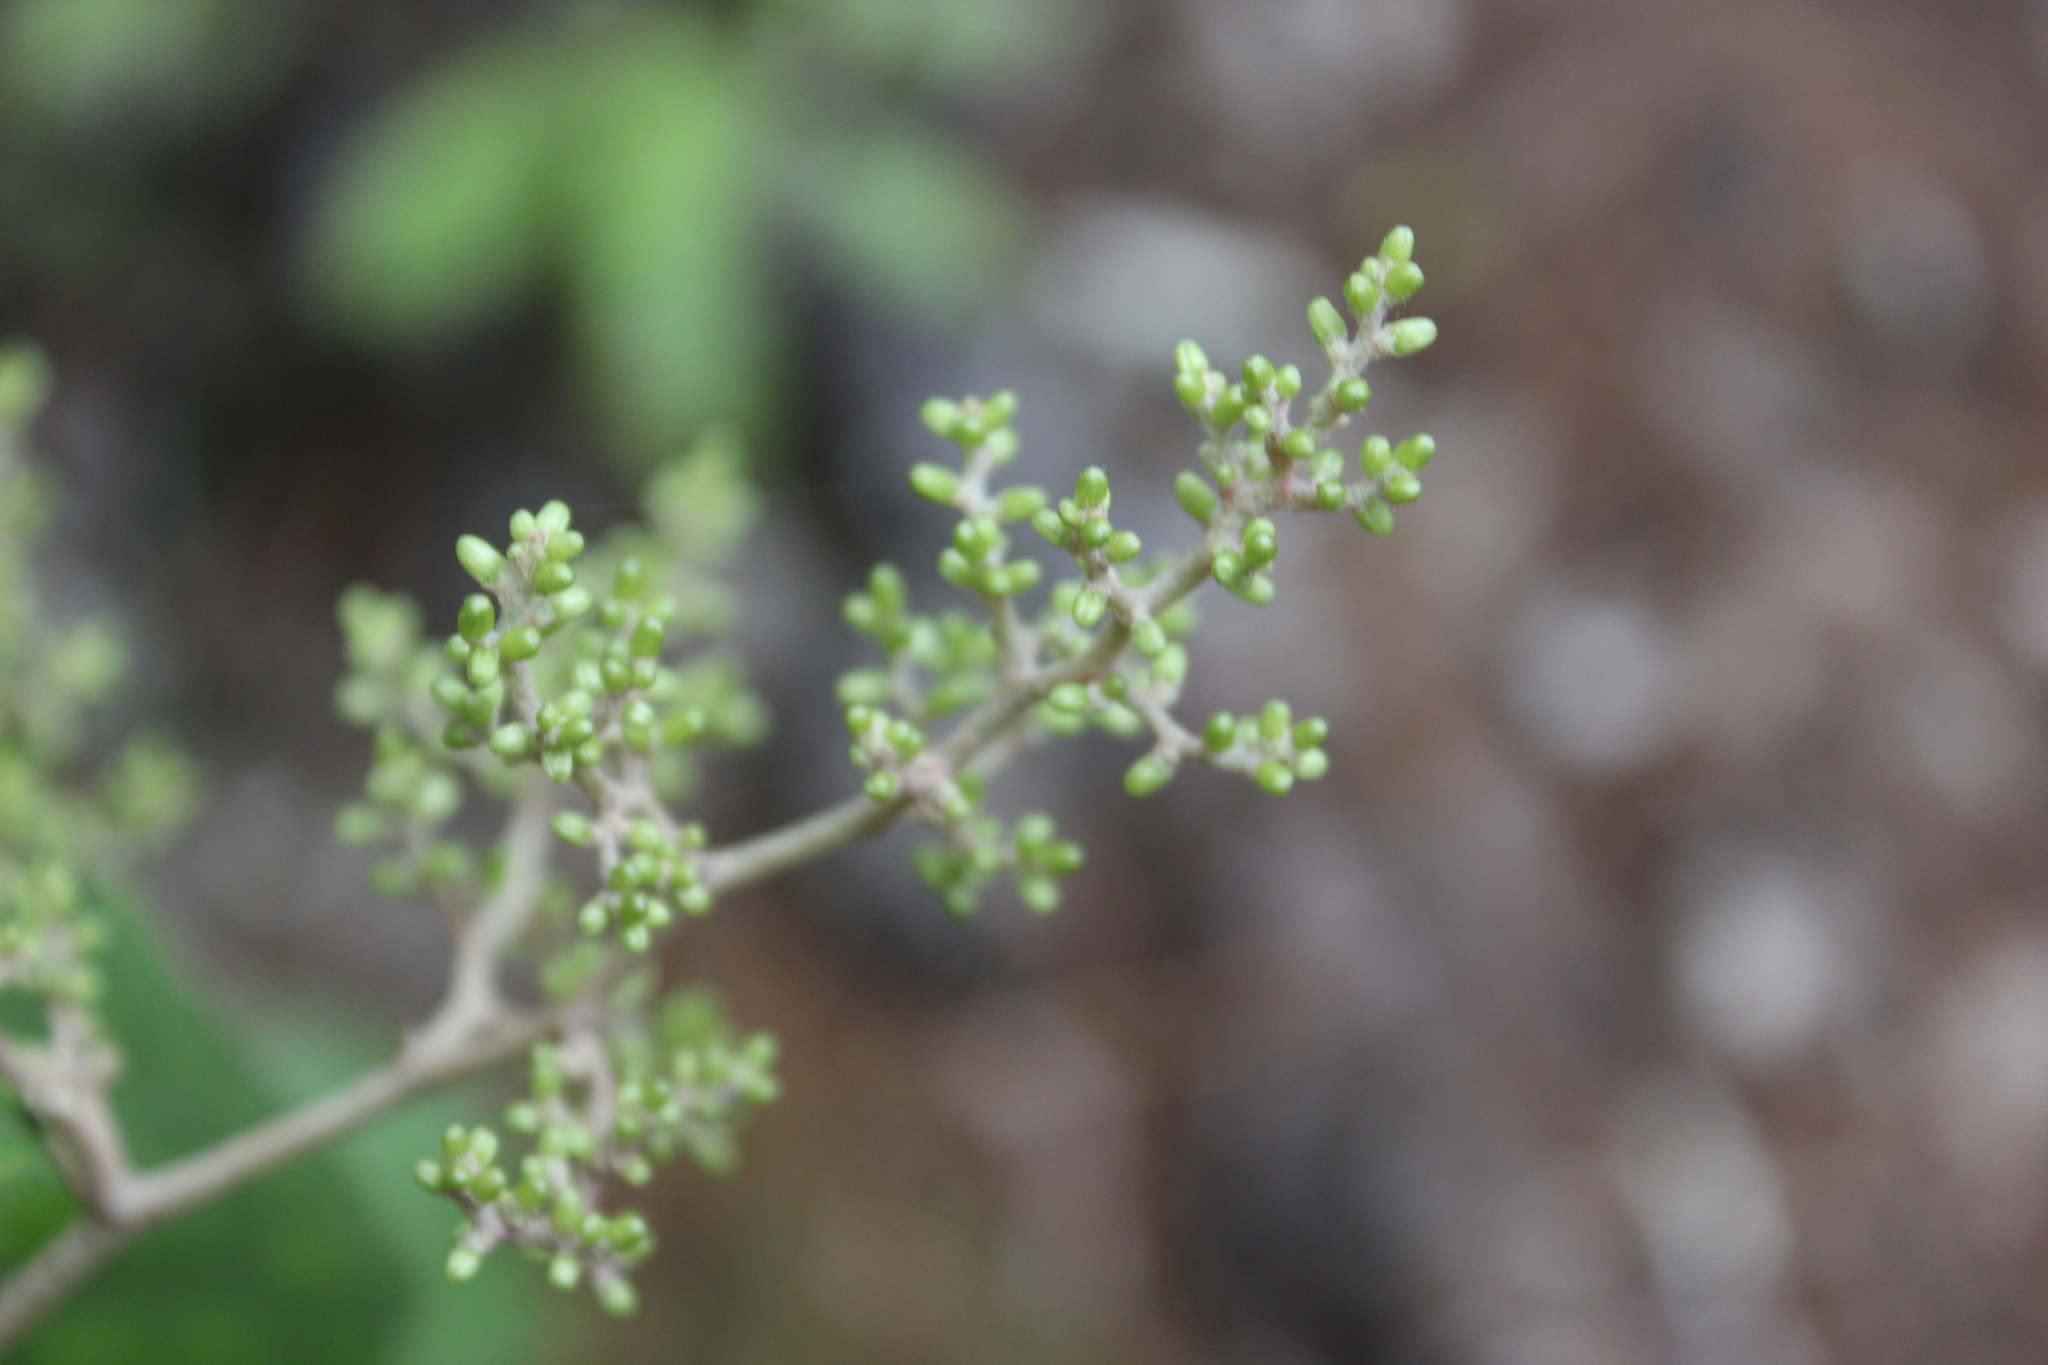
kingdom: Plantae
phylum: Tracheophyta
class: Magnoliopsida
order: Asterales
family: Asteraceae
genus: Brachyglottis
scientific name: Brachyglottis repanda
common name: Hedge ragwort
